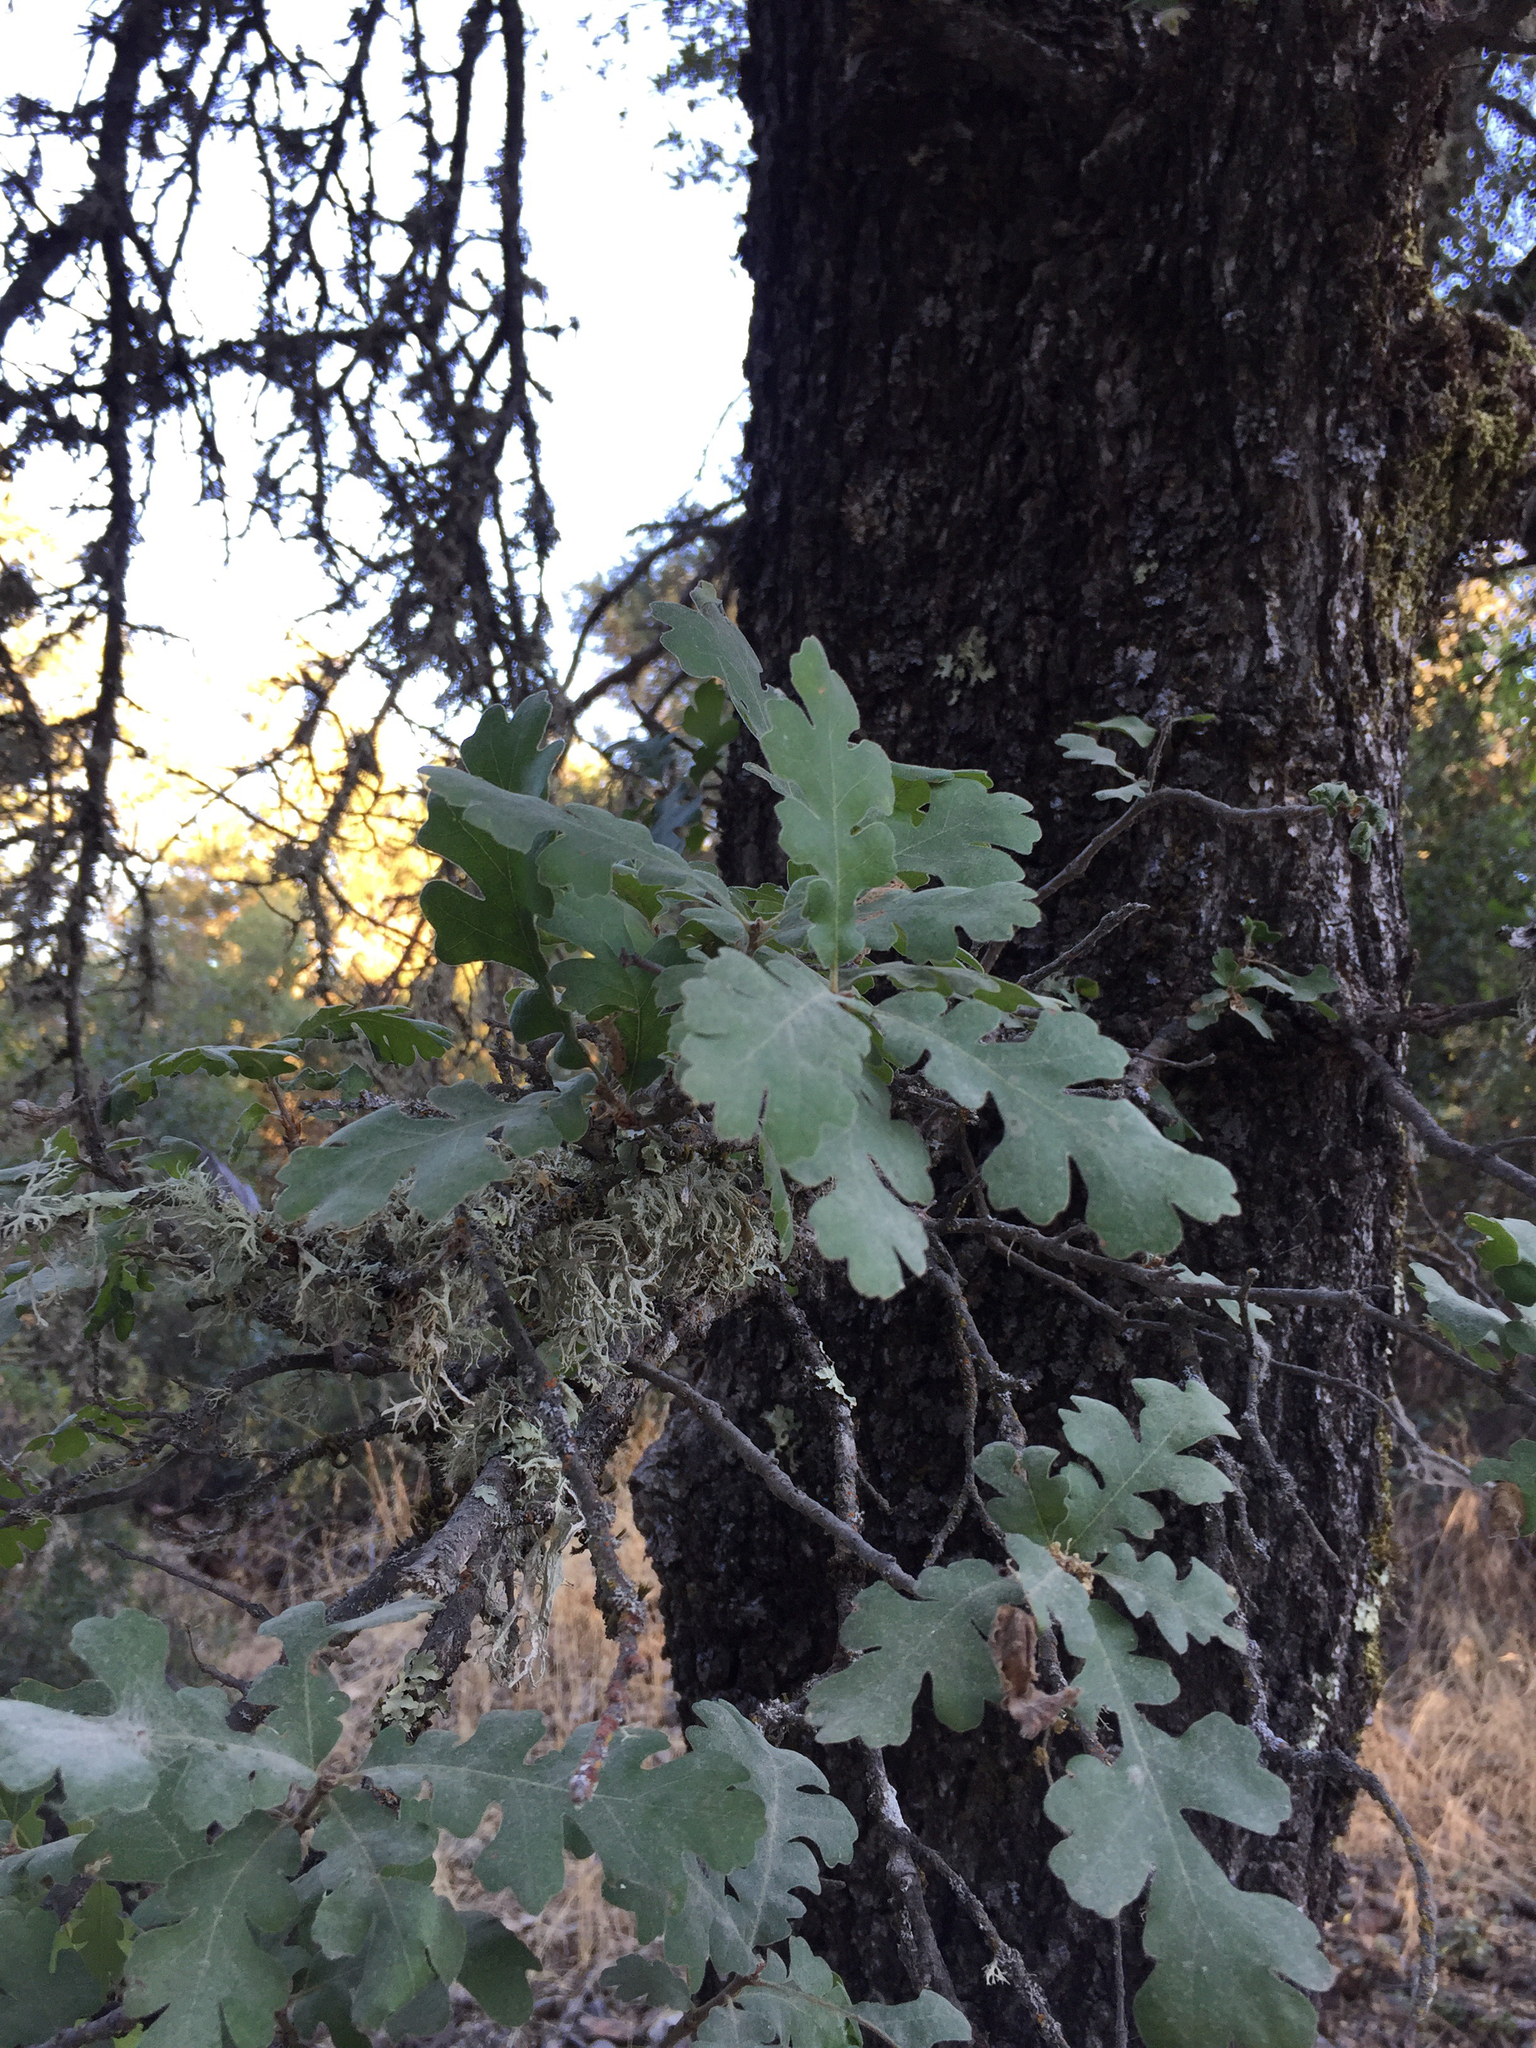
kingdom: Plantae
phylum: Tracheophyta
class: Magnoliopsida
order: Fagales
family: Fagaceae
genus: Quercus
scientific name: Quercus lobata
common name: Valley oak
